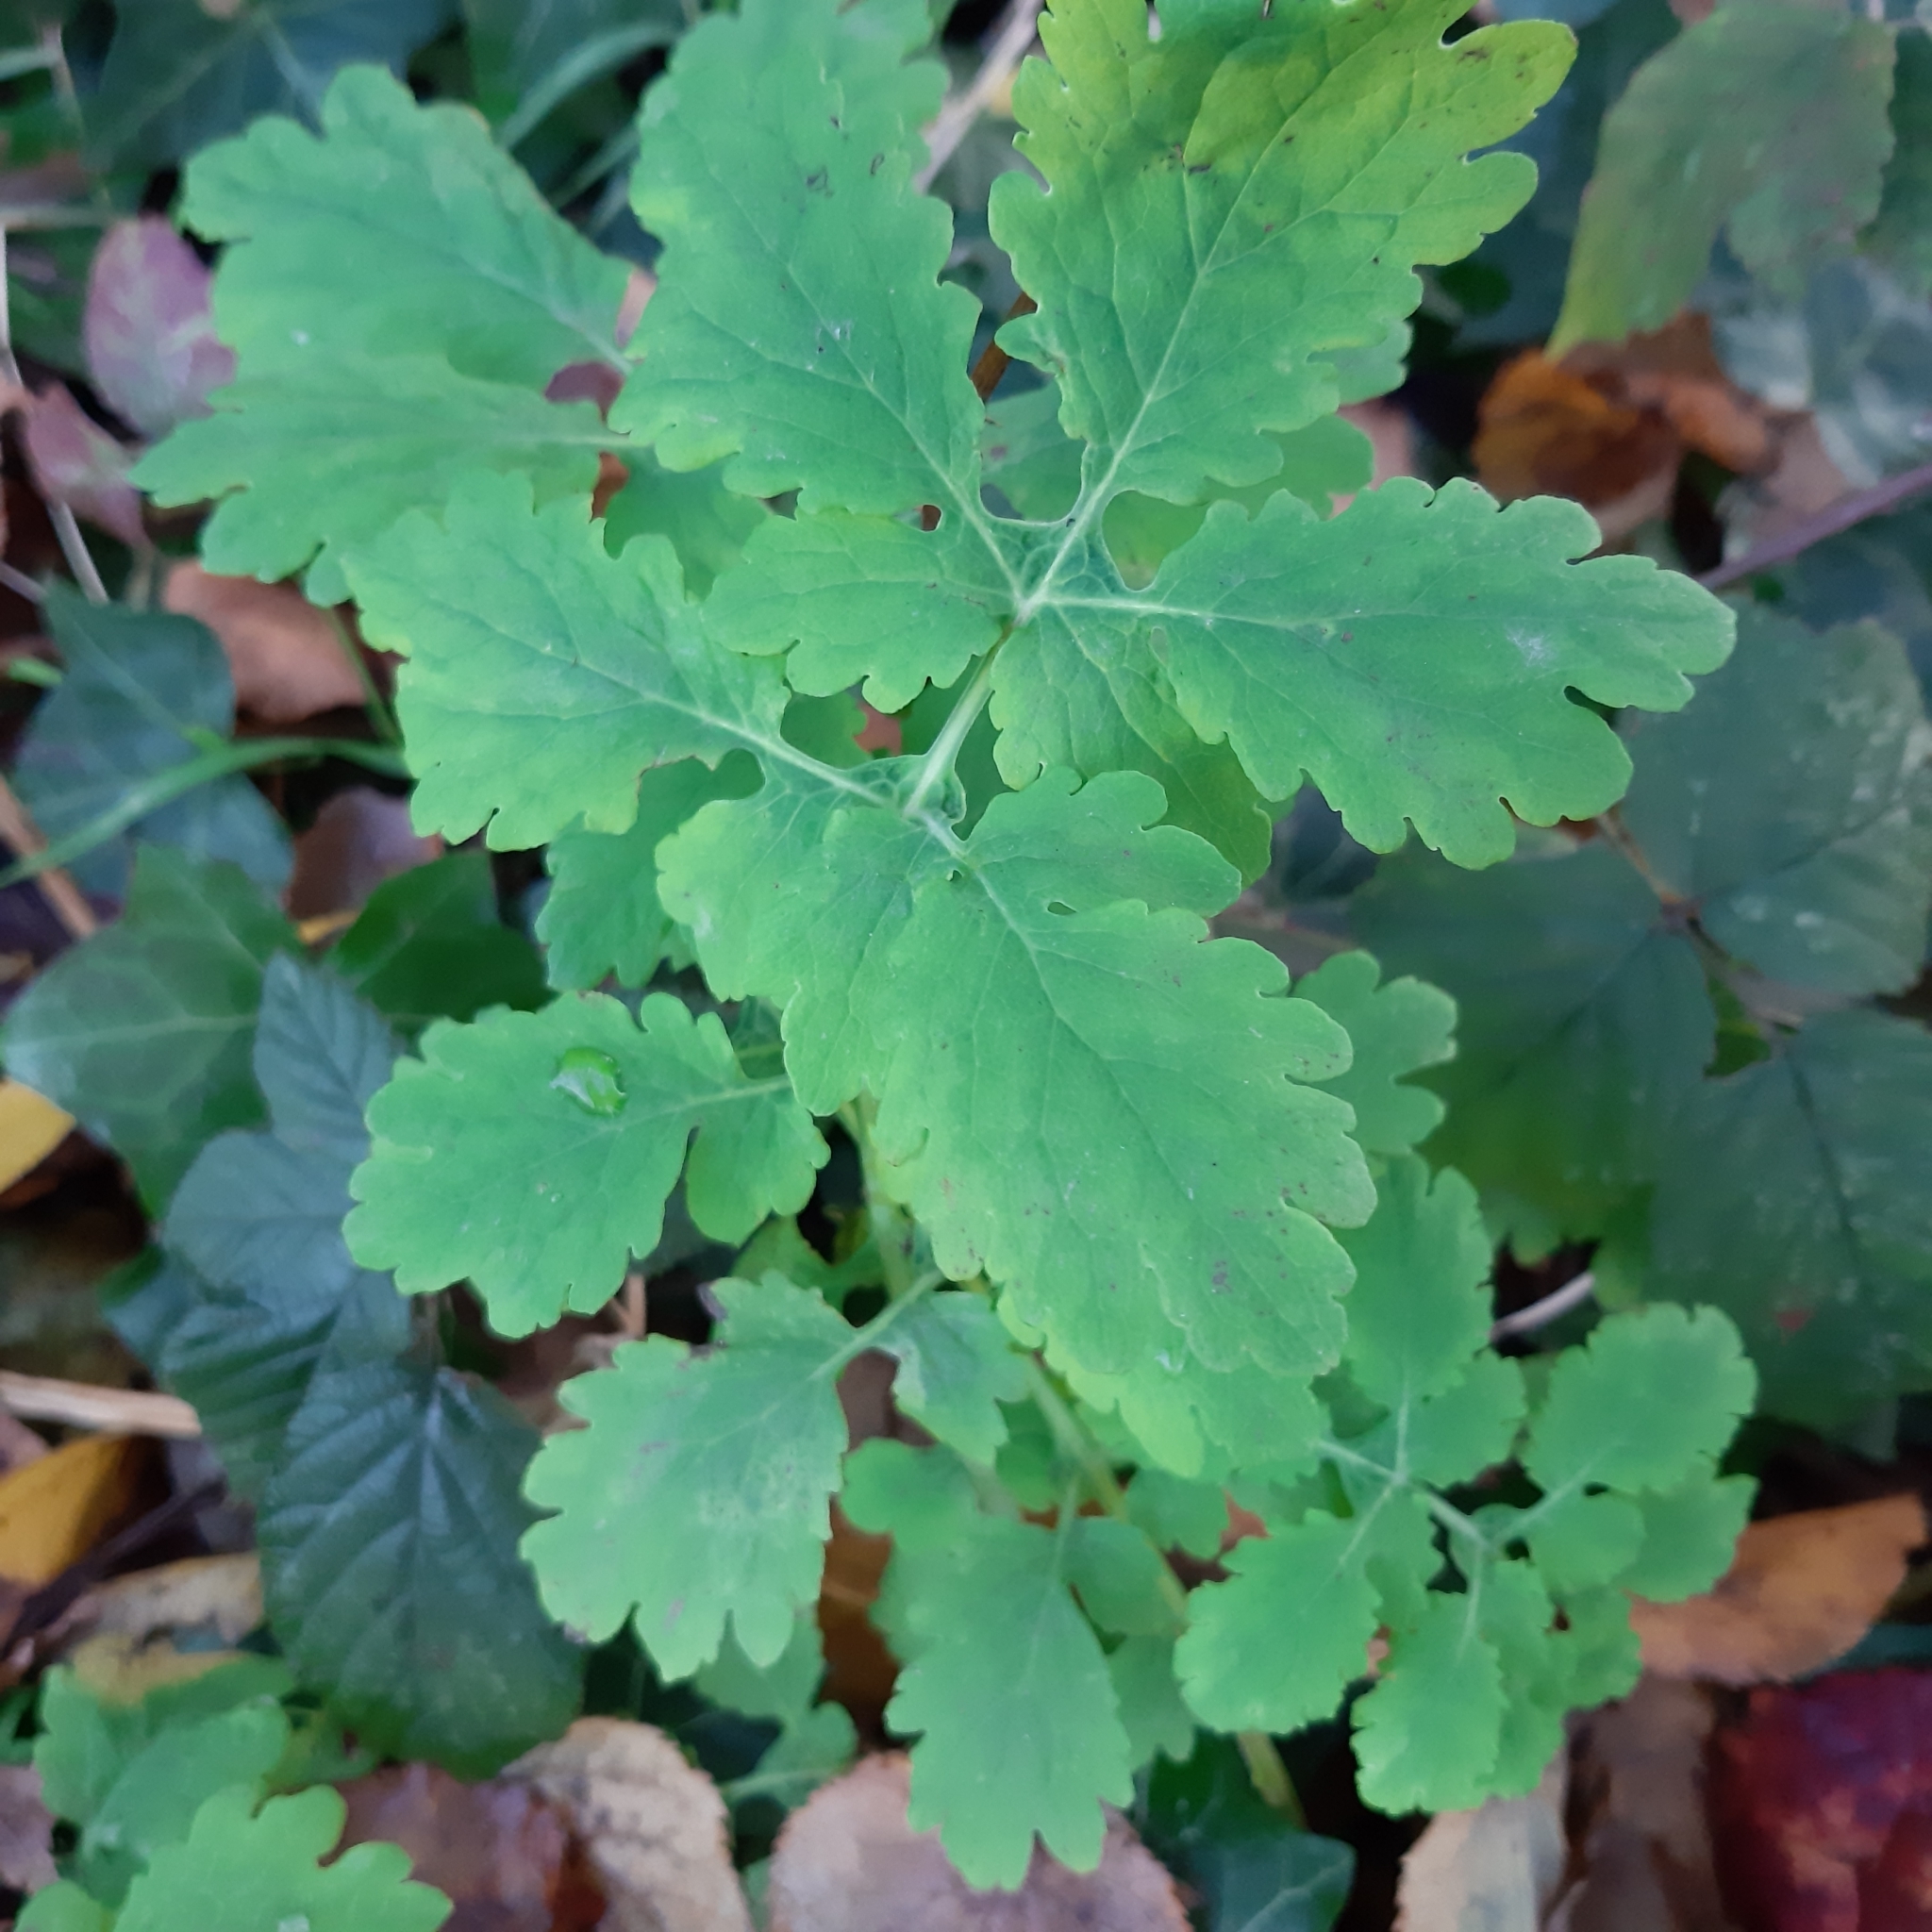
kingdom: Plantae
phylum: Tracheophyta
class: Magnoliopsida
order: Ranunculales
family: Papaveraceae
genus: Chelidonium
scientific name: Chelidonium majus
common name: Greater celandine
